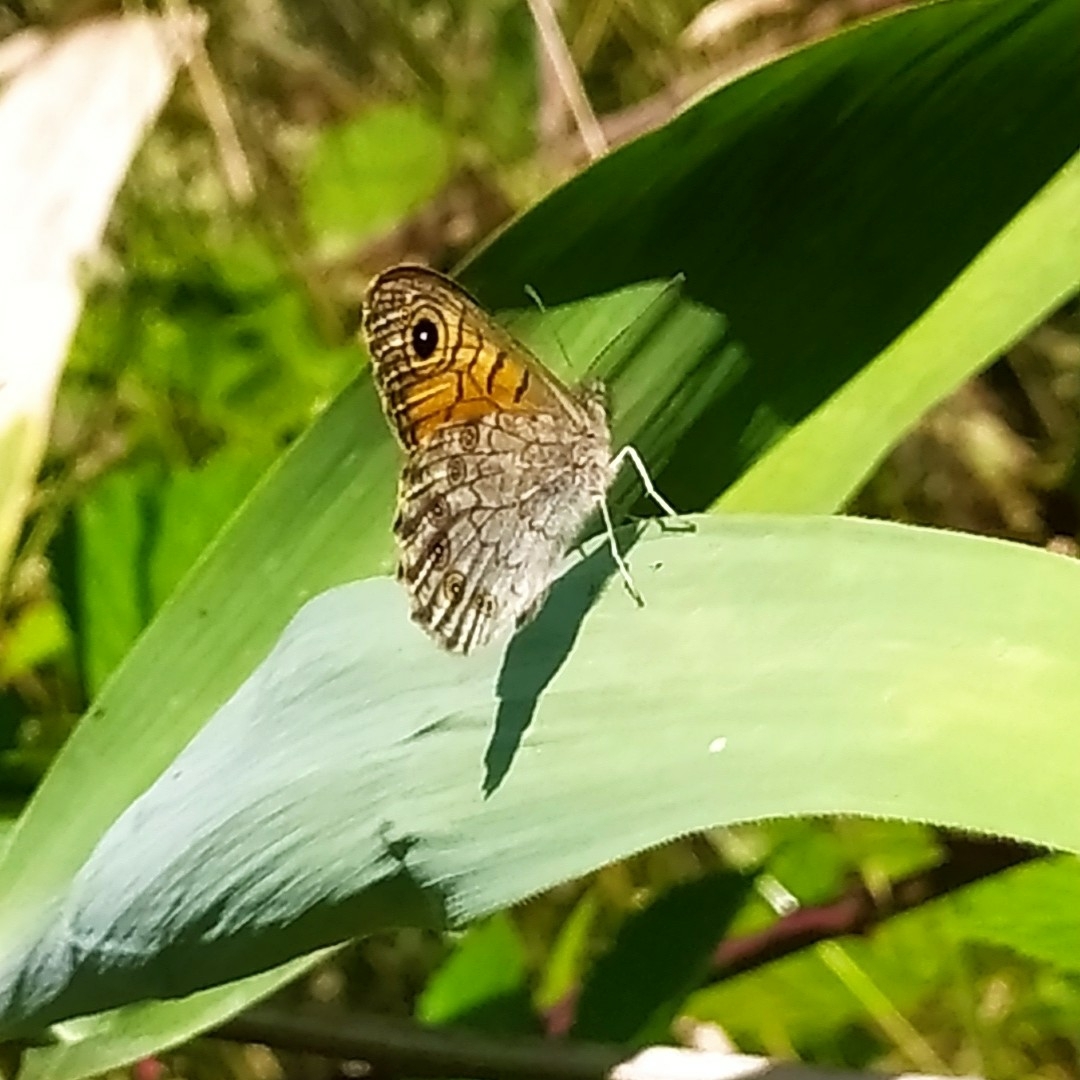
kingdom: Animalia
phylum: Arthropoda
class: Insecta
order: Lepidoptera
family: Nymphalidae
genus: Pararge
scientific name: Pararge Lasiommata megera
